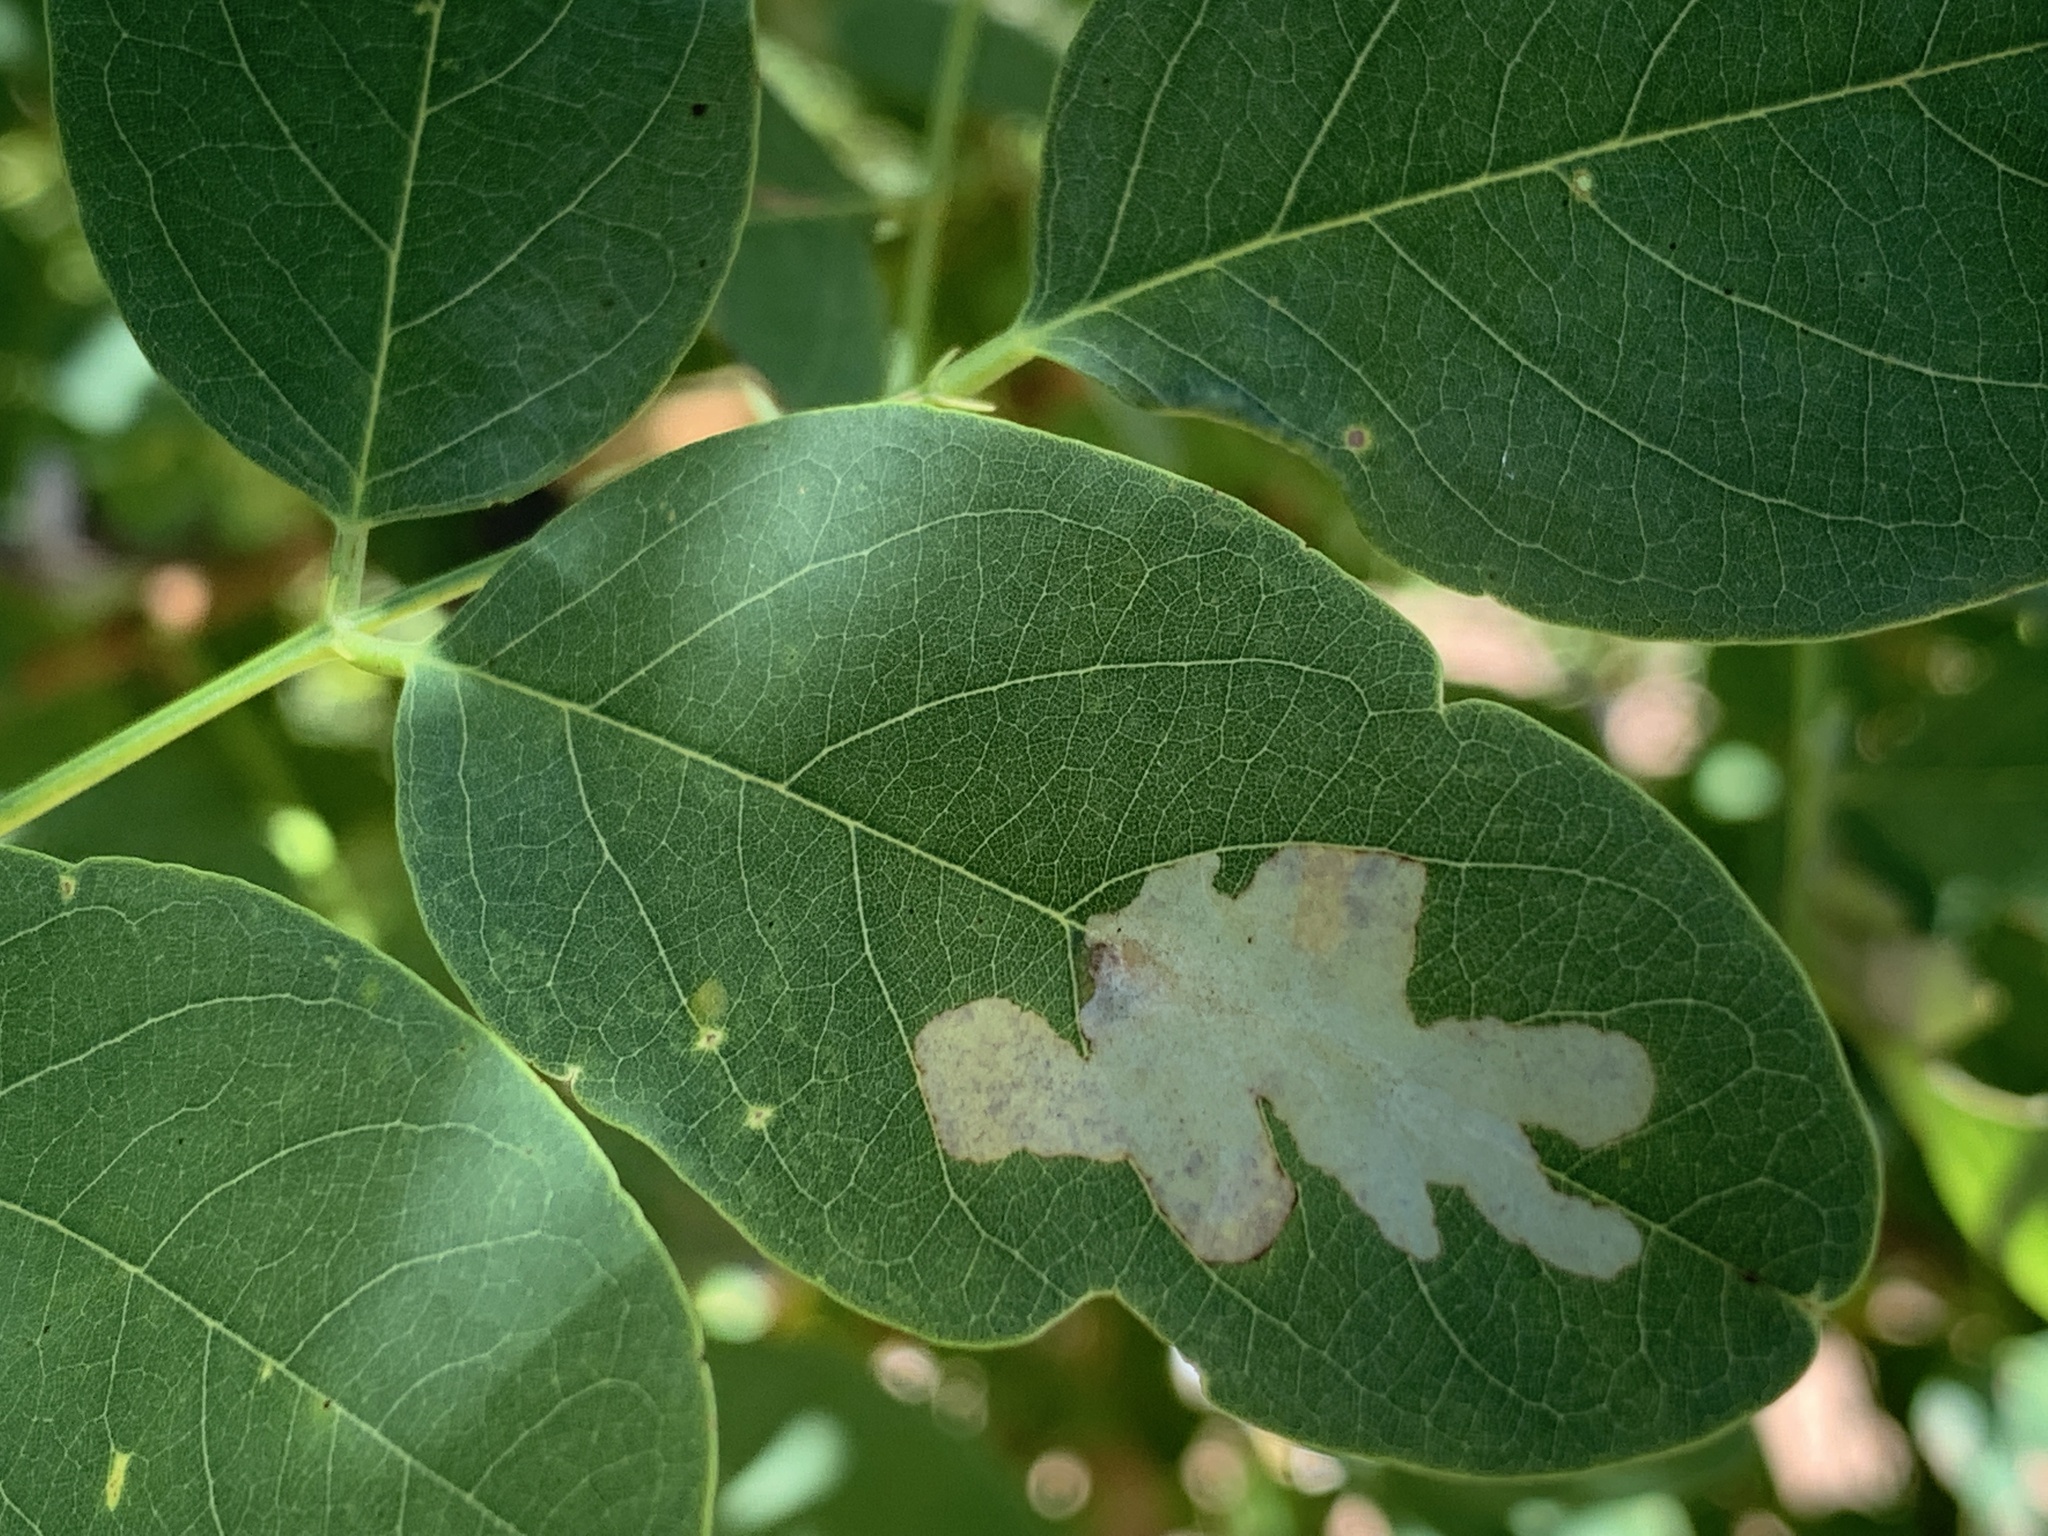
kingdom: Animalia
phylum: Arthropoda
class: Insecta
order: Lepidoptera
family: Gracillariidae
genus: Parectopa
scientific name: Parectopa robiniella
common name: Locust digitate leafminer
